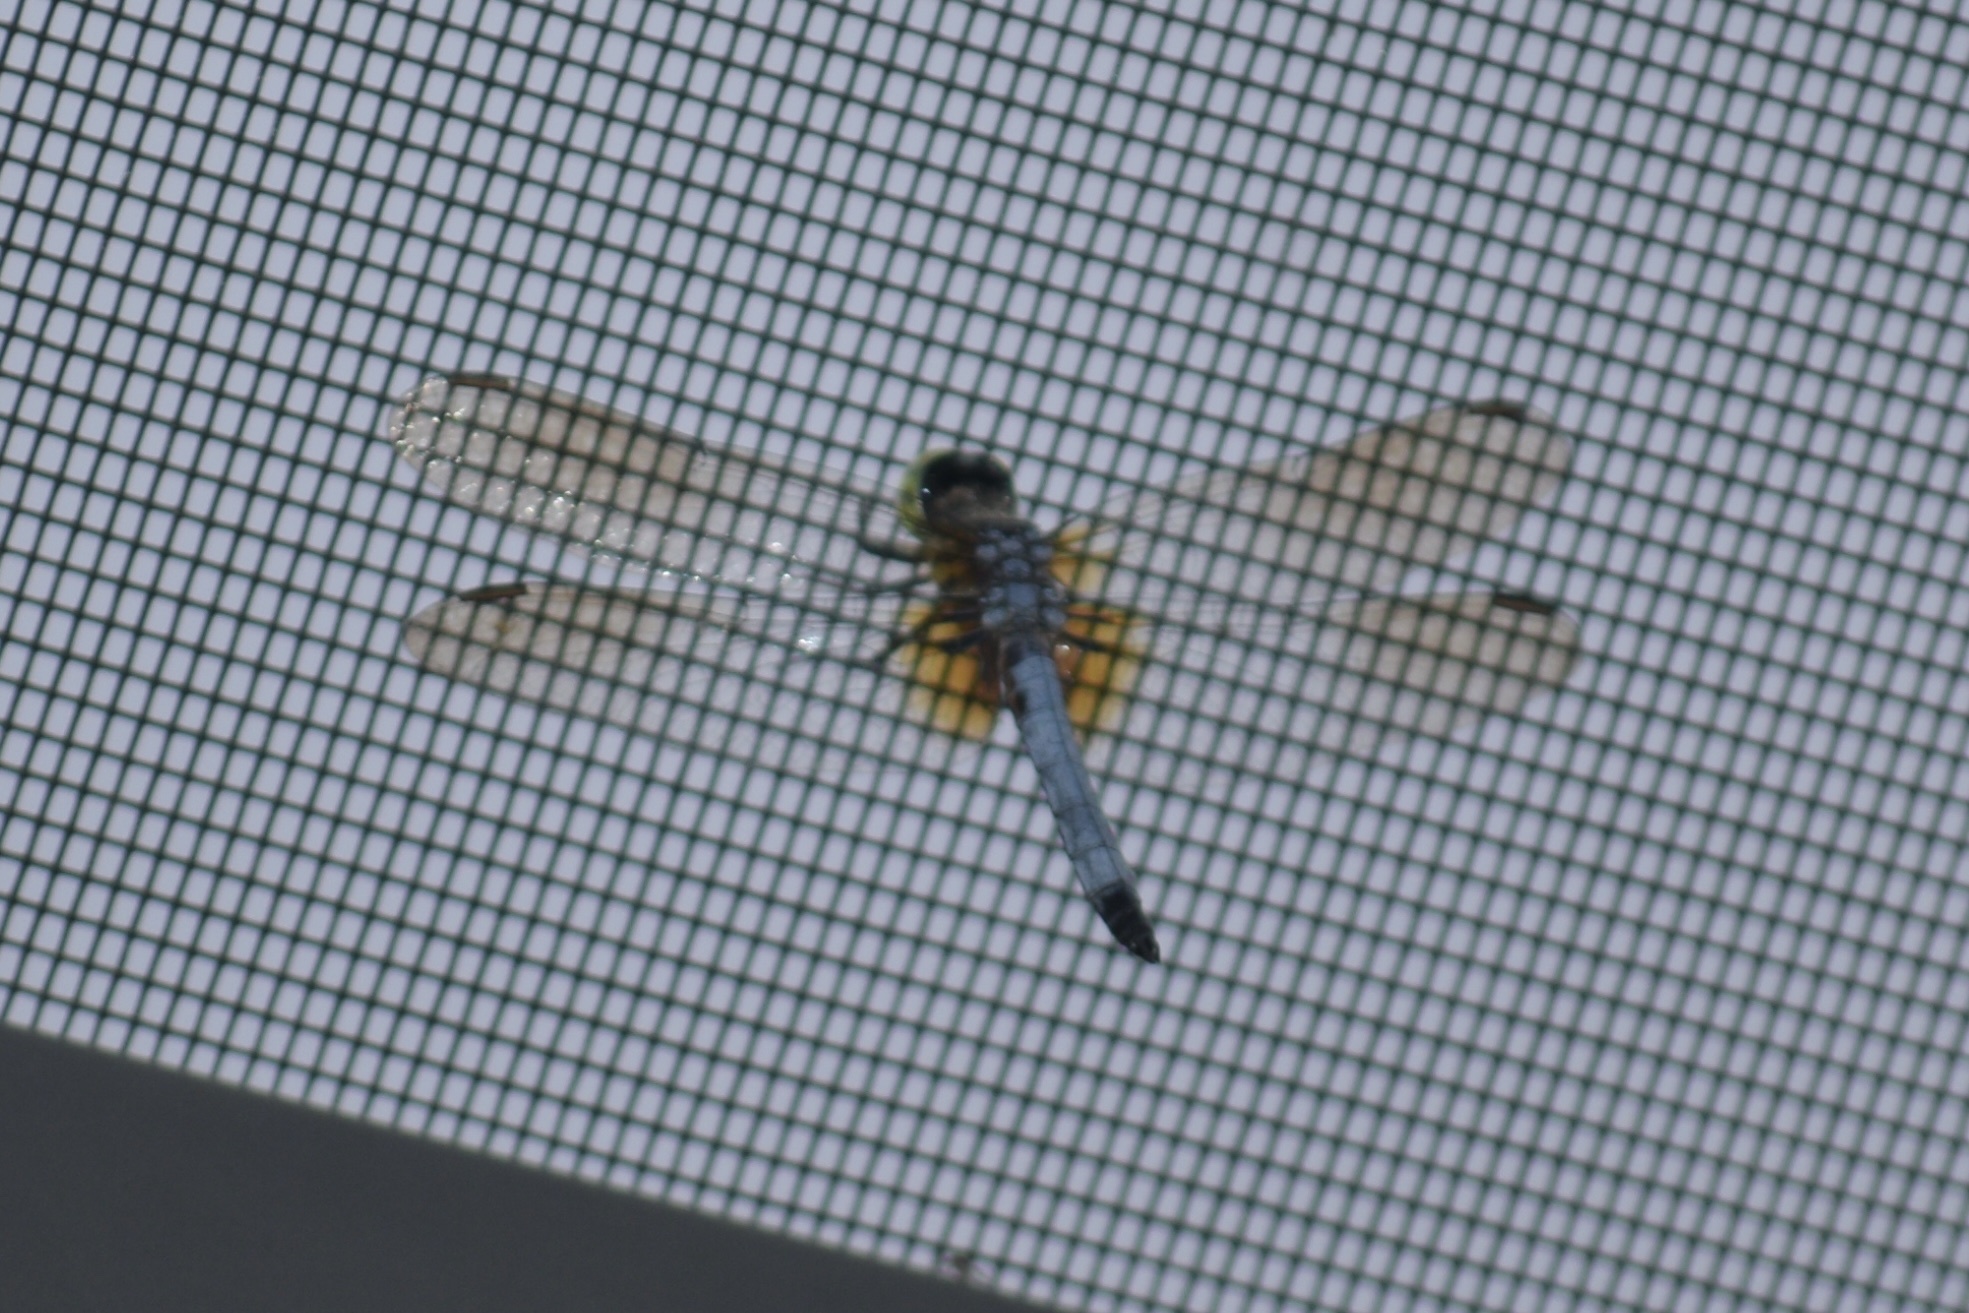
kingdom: Animalia
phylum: Arthropoda
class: Insecta
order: Odonata
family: Libellulidae
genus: Pachydiplax
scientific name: Pachydiplax longipennis
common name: Blue dasher
